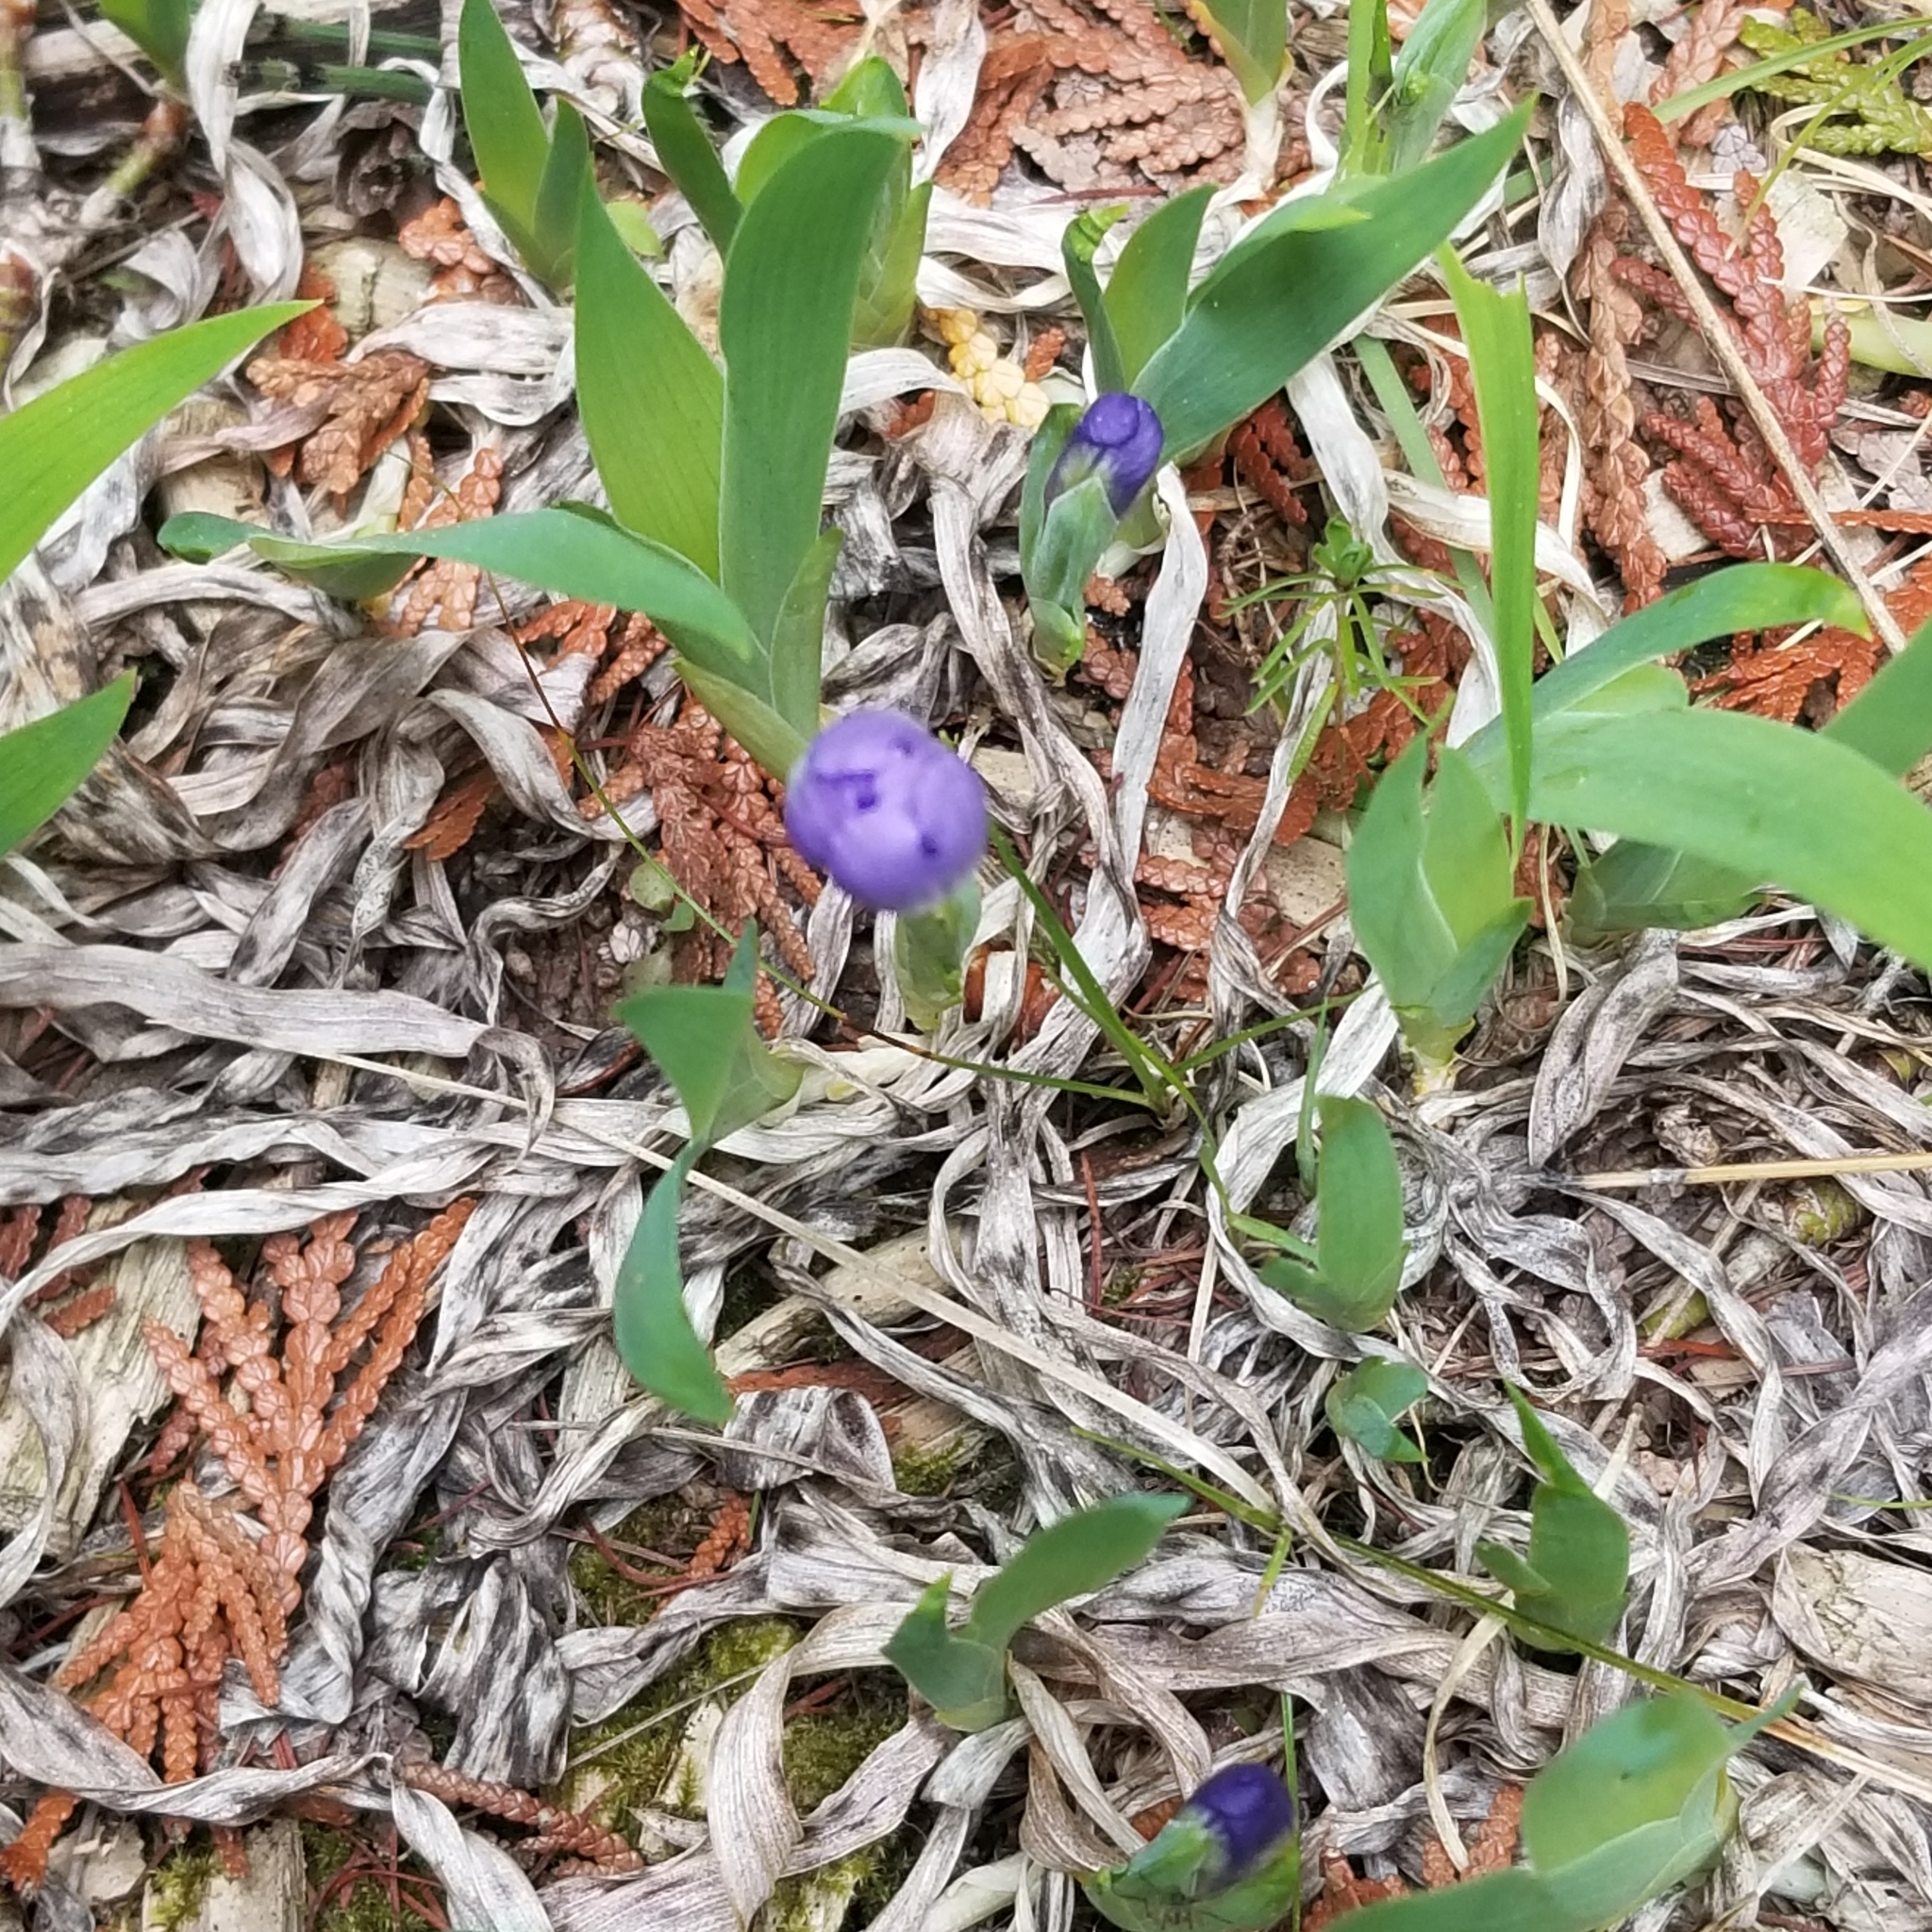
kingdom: Plantae
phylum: Tracheophyta
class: Liliopsida
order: Asparagales
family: Iridaceae
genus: Iris
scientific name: Iris lacustris
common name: Dwarf lake iris
